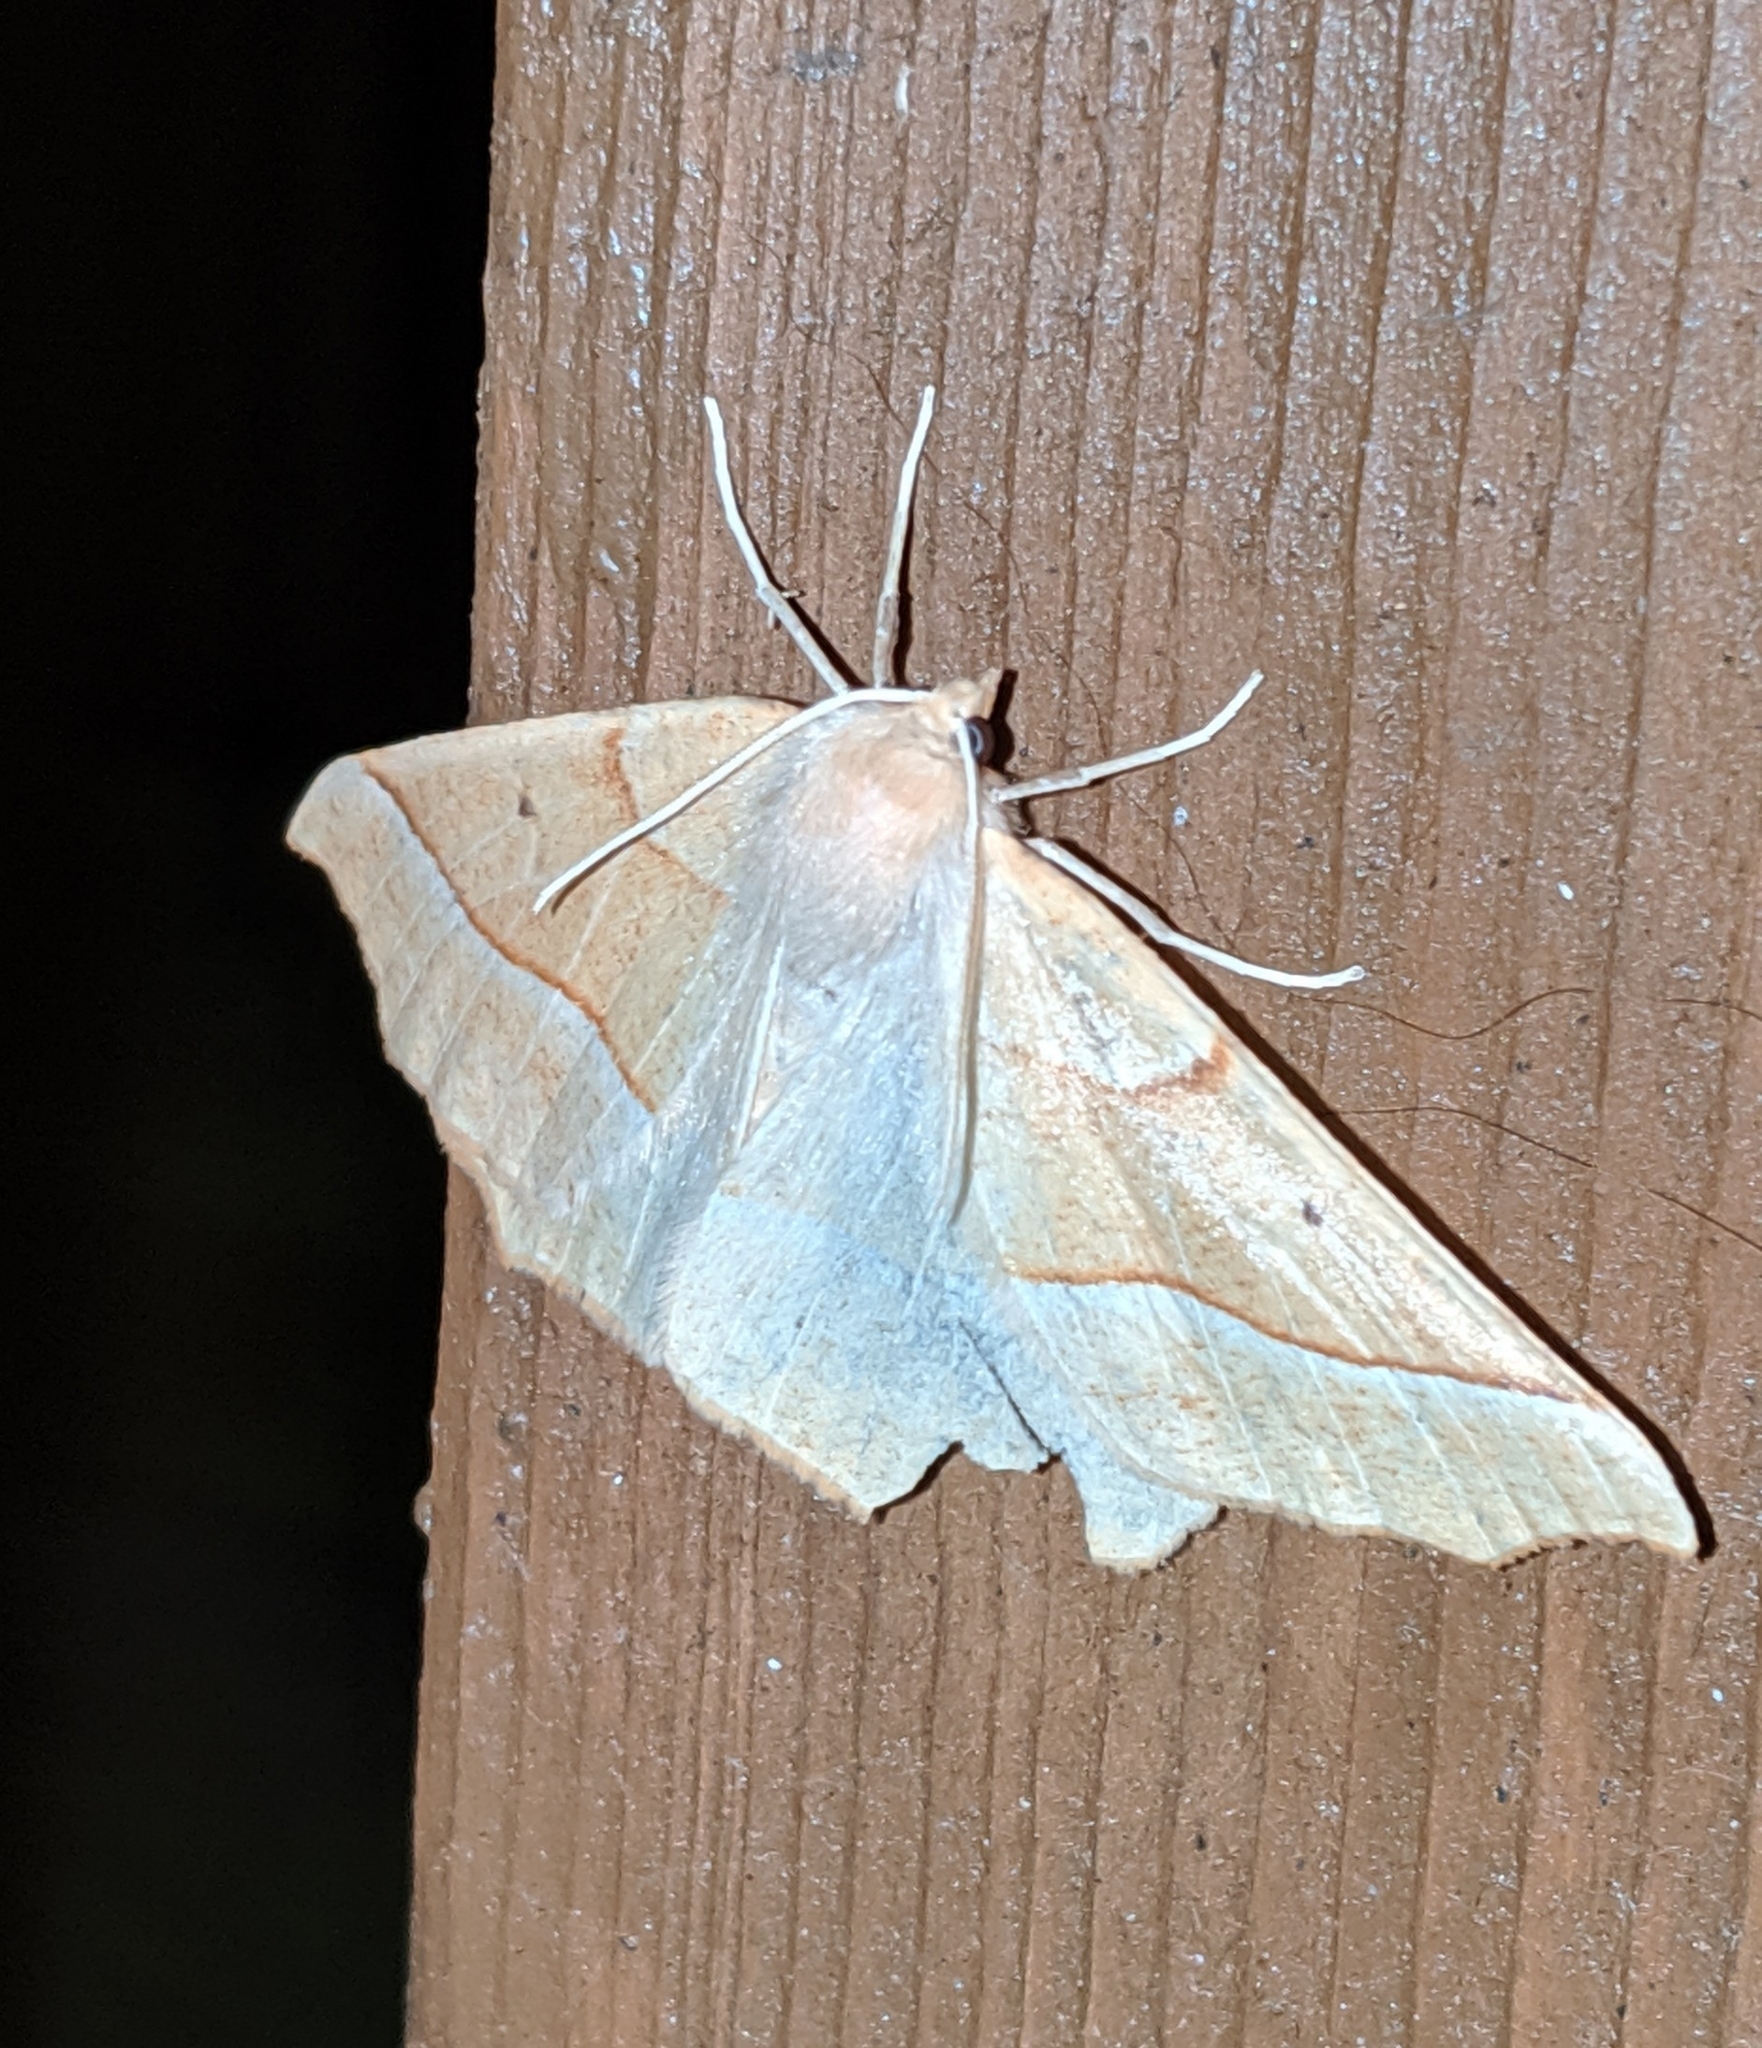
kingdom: Animalia
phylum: Arthropoda
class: Insecta
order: Lepidoptera
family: Geometridae
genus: Synaxis
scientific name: Synaxis jubararia
